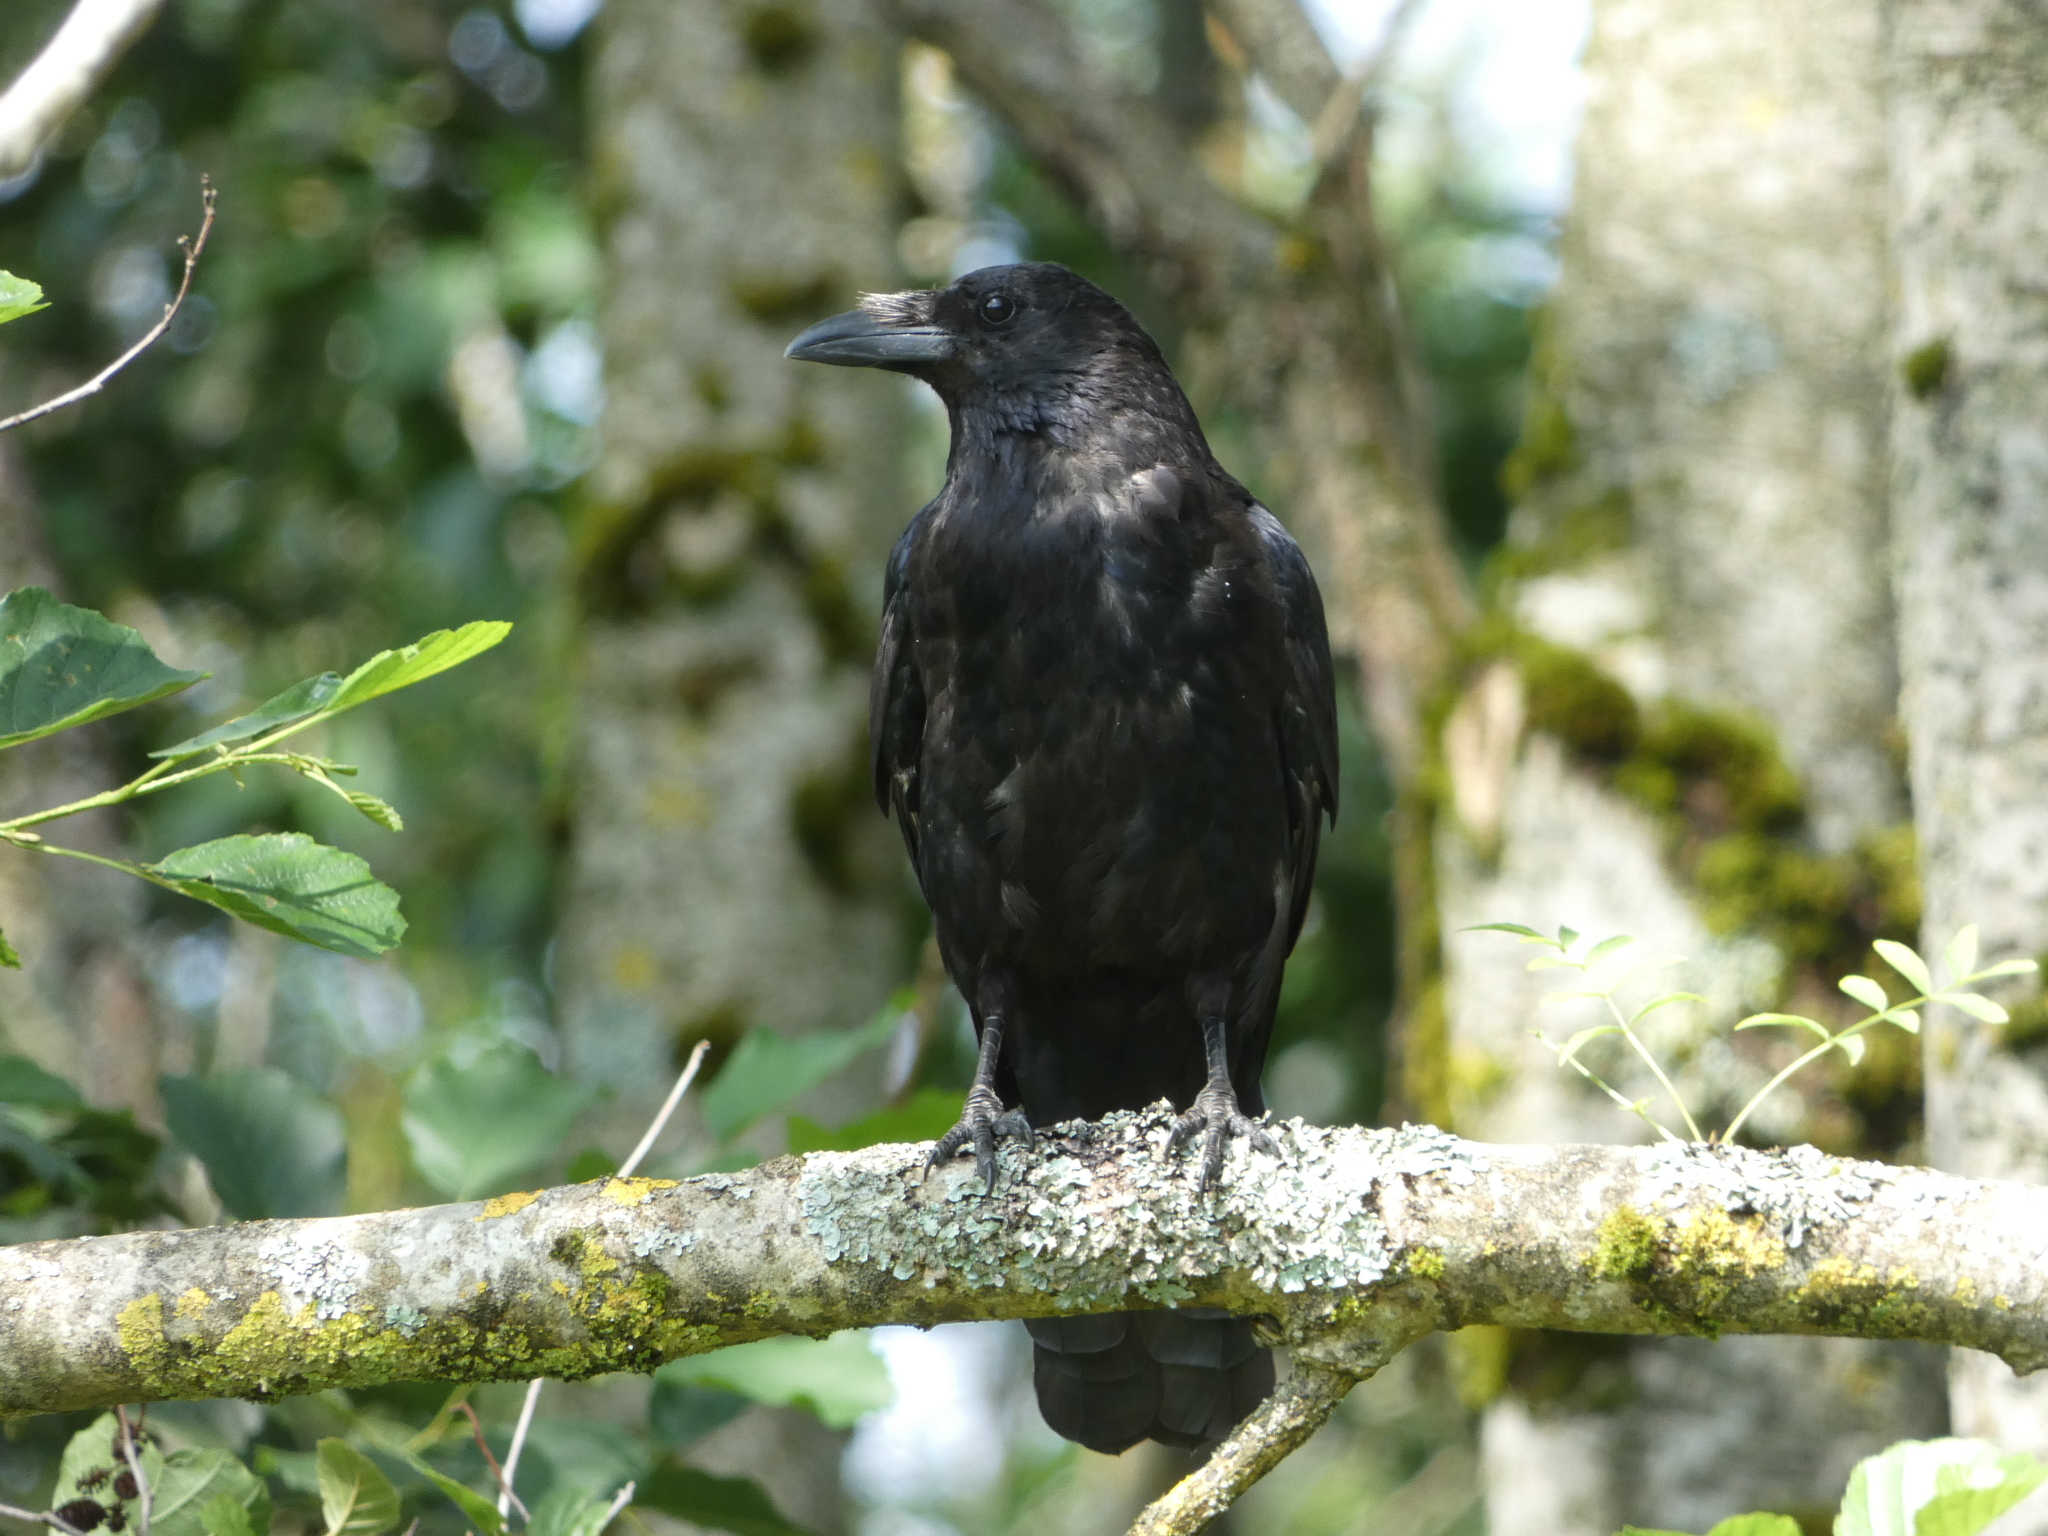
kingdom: Animalia
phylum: Chordata
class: Aves
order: Passeriformes
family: Corvidae
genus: Corvus
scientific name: Corvus corone
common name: Carrion crow
